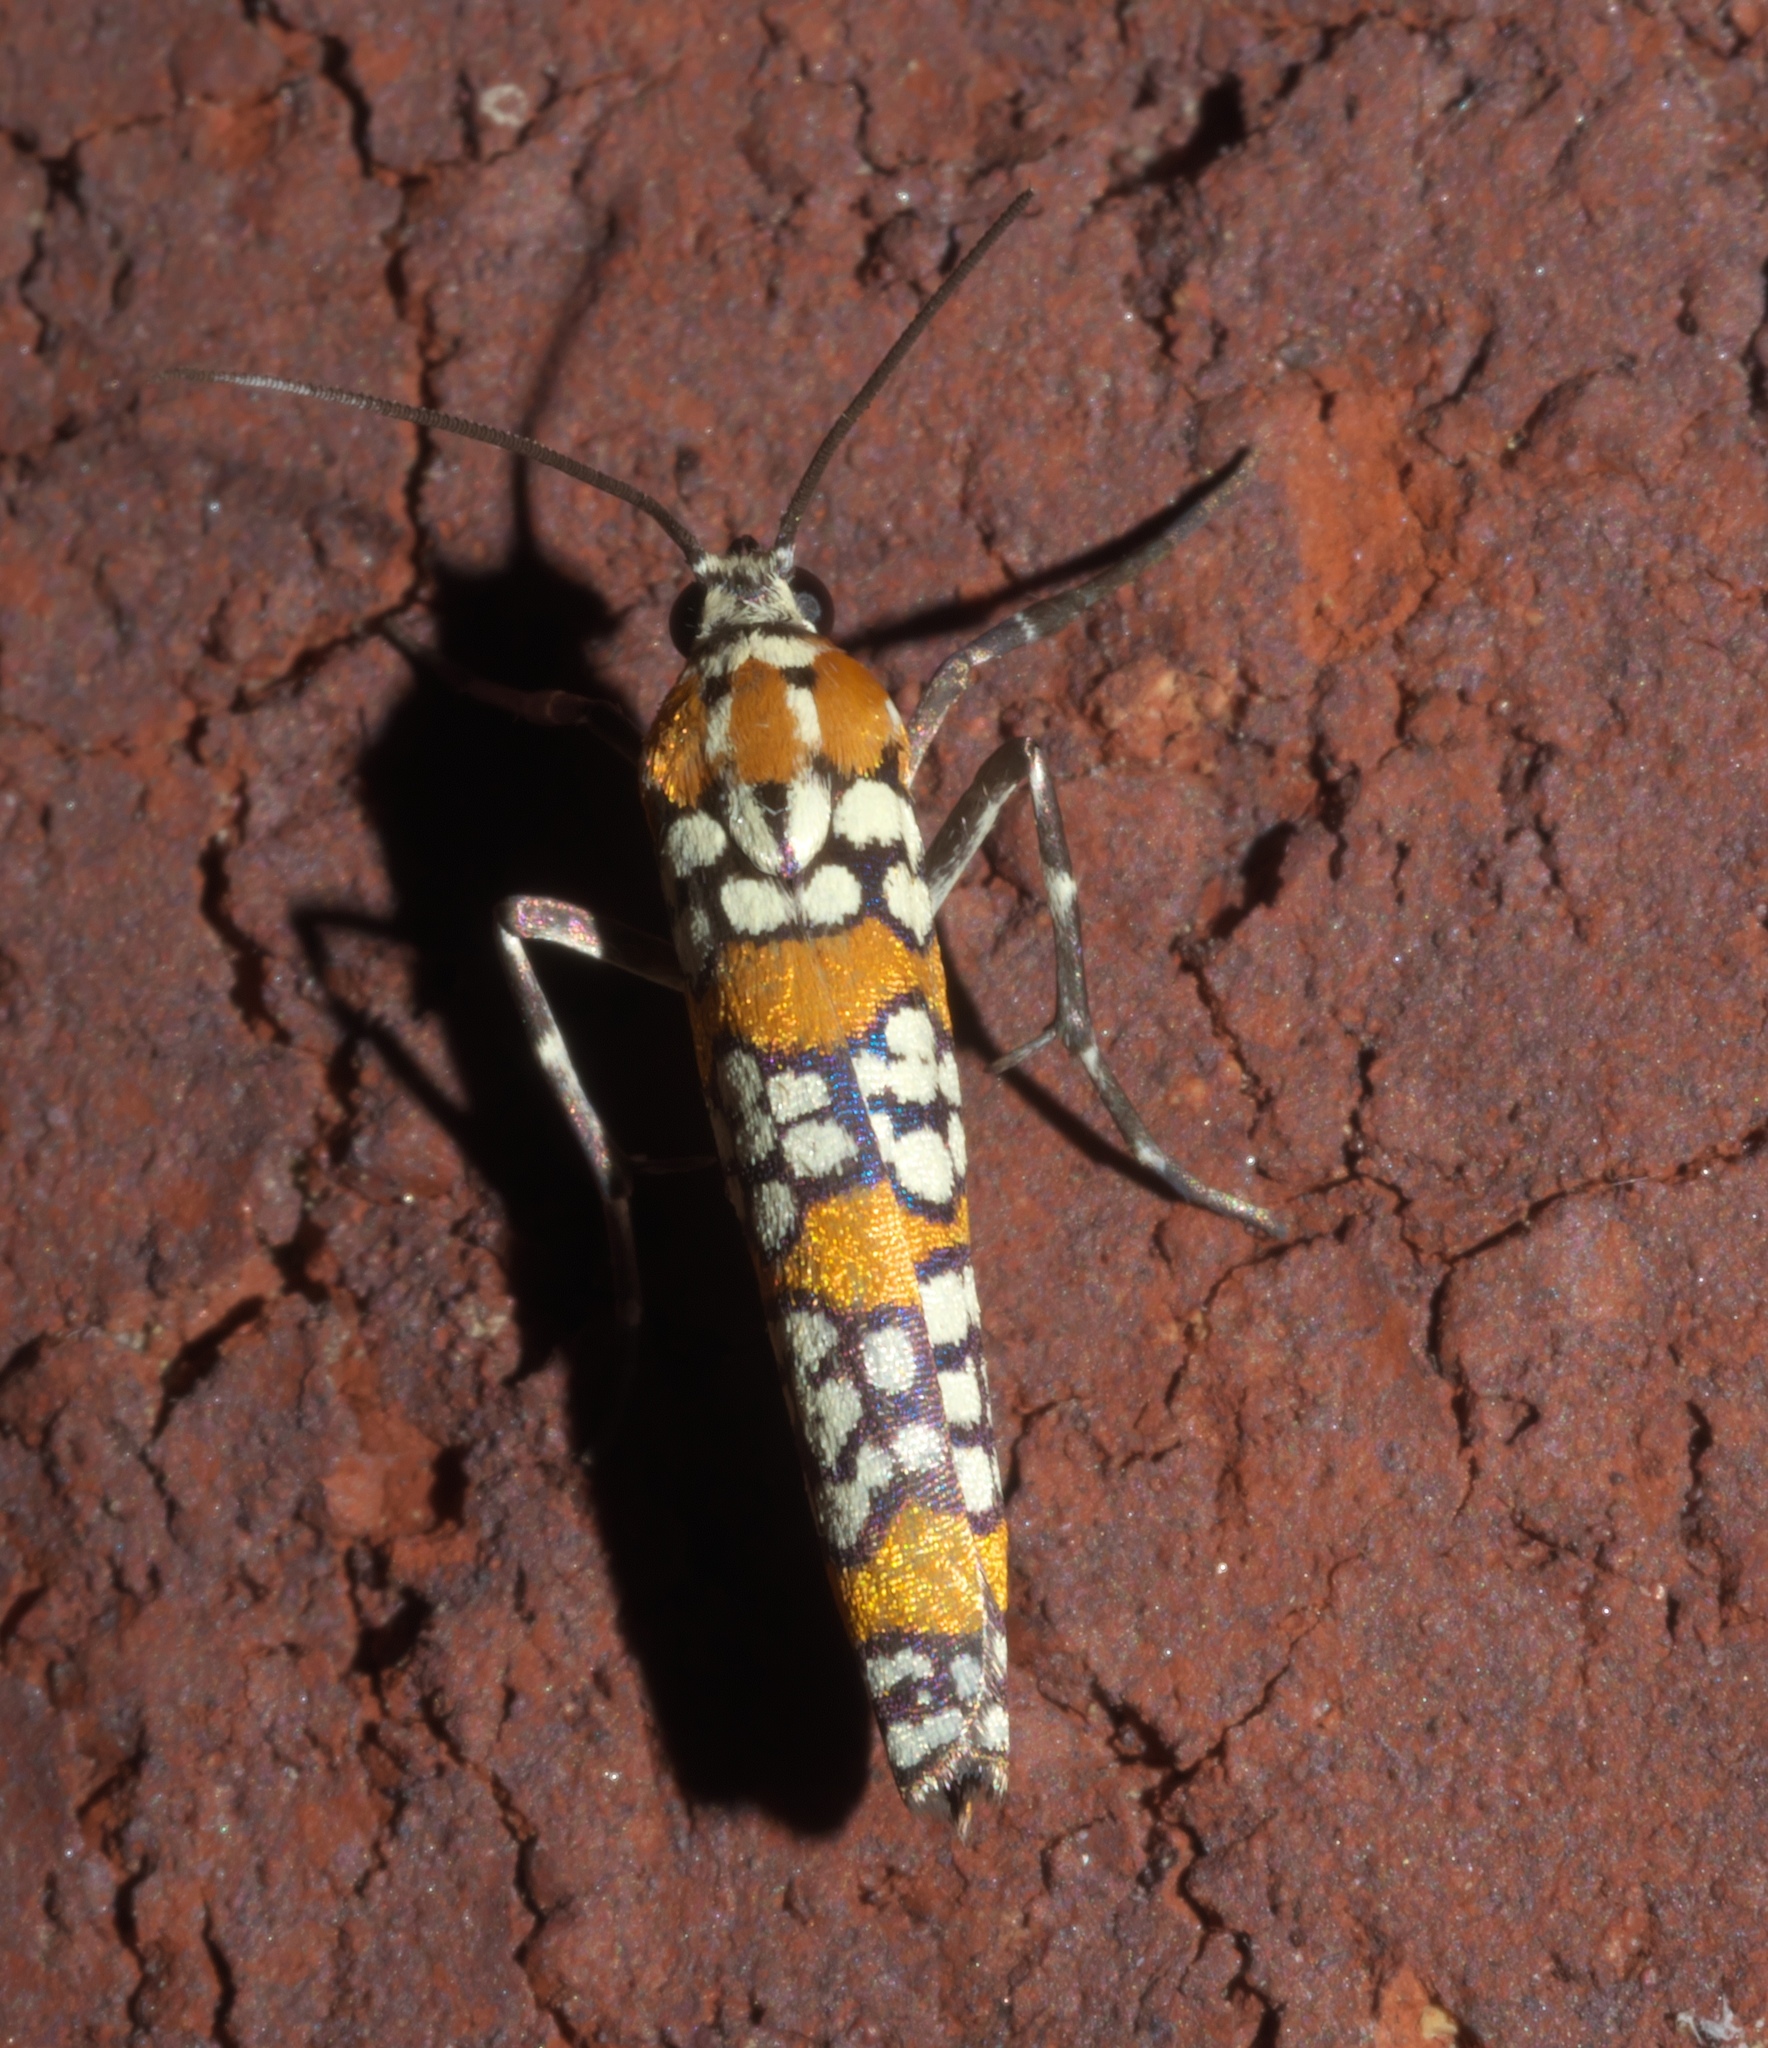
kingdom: Animalia
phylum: Arthropoda
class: Insecta
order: Lepidoptera
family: Attevidae
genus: Atteva
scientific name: Atteva punctella
